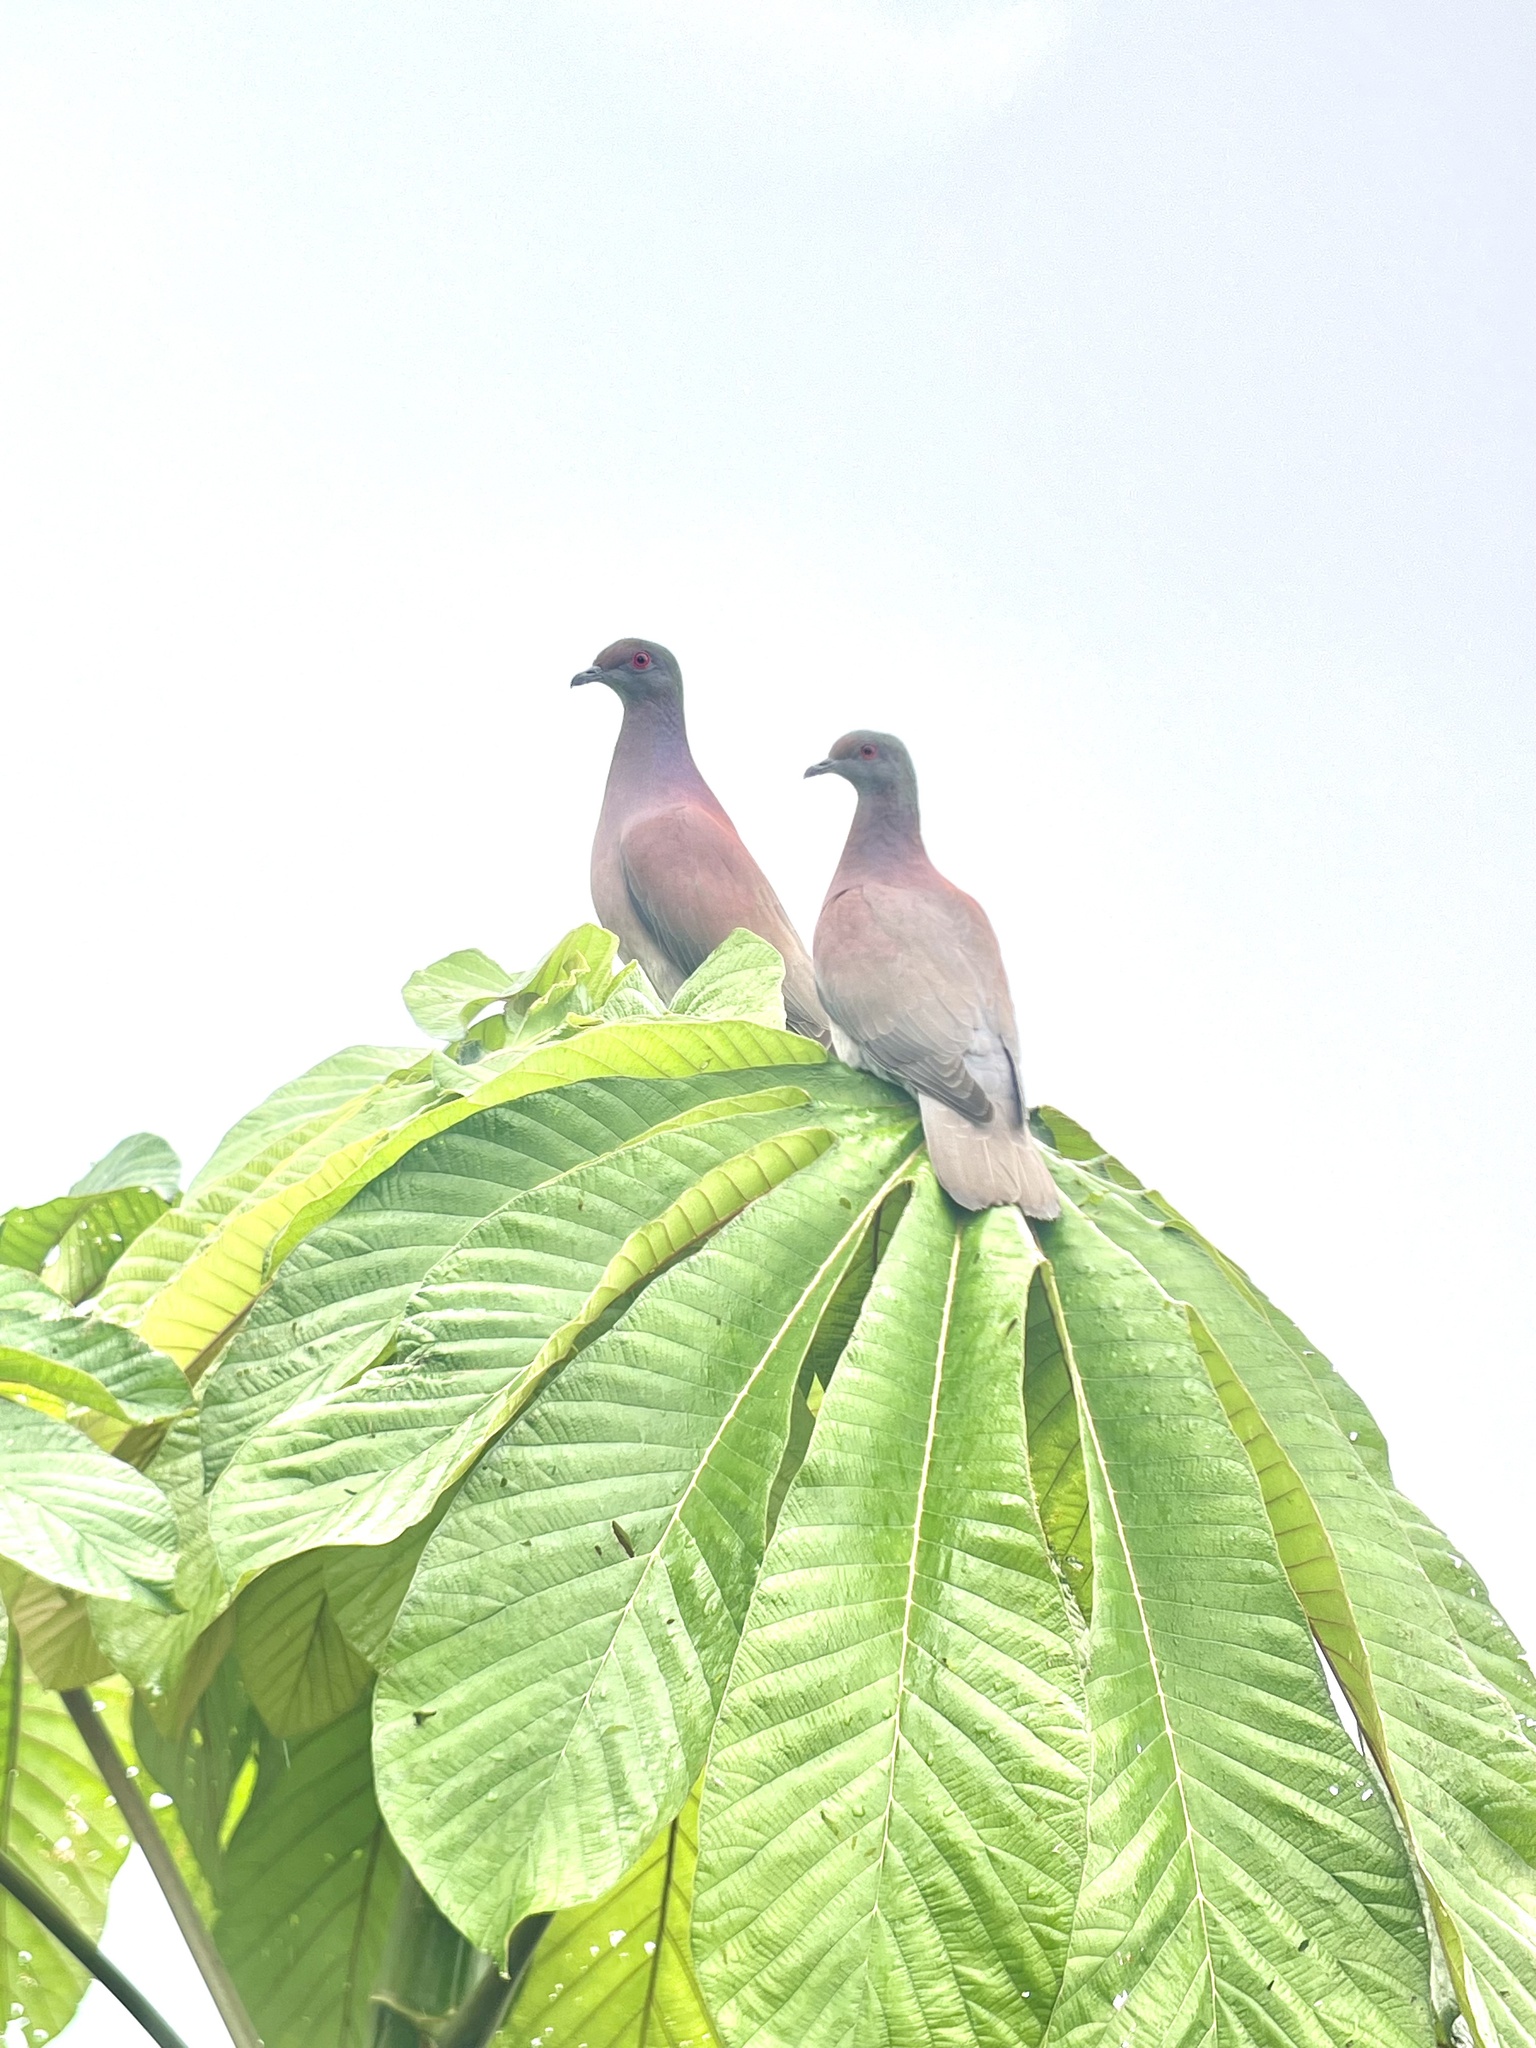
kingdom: Animalia
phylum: Chordata
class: Aves
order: Columbiformes
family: Columbidae
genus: Patagioenas
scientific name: Patagioenas cayennensis
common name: Pale-vented pigeon
